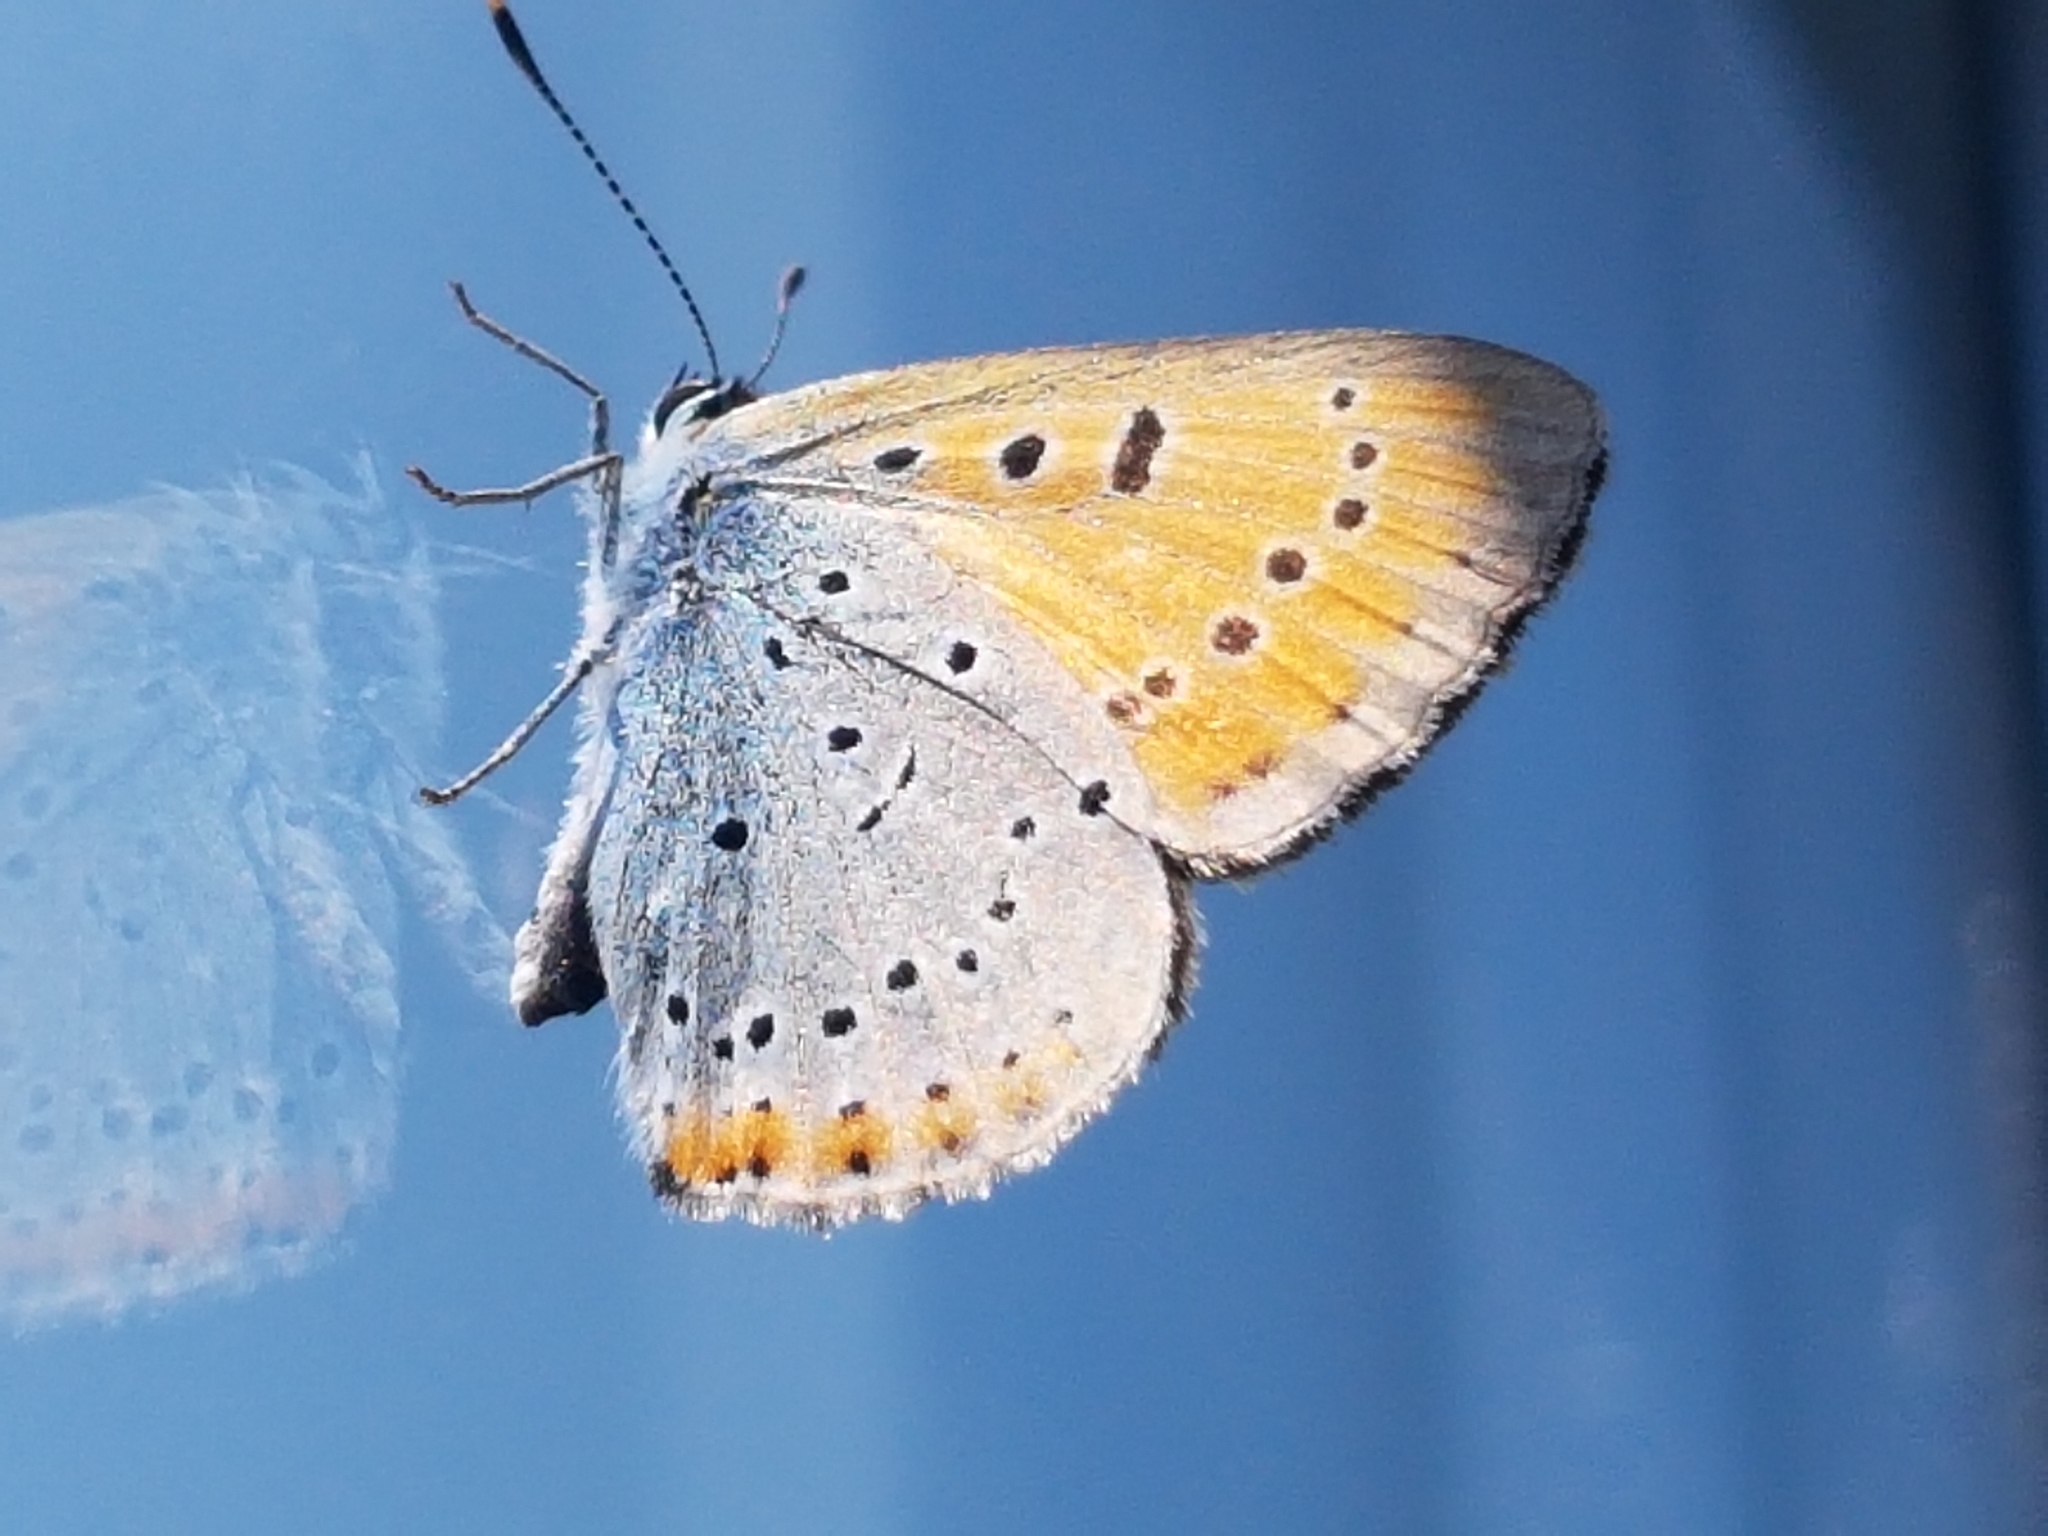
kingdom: Animalia
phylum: Arthropoda
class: Insecta
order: Lepidoptera
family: Lycaenidae
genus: Lycaena
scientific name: Lycaena dispar
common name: Large copper
